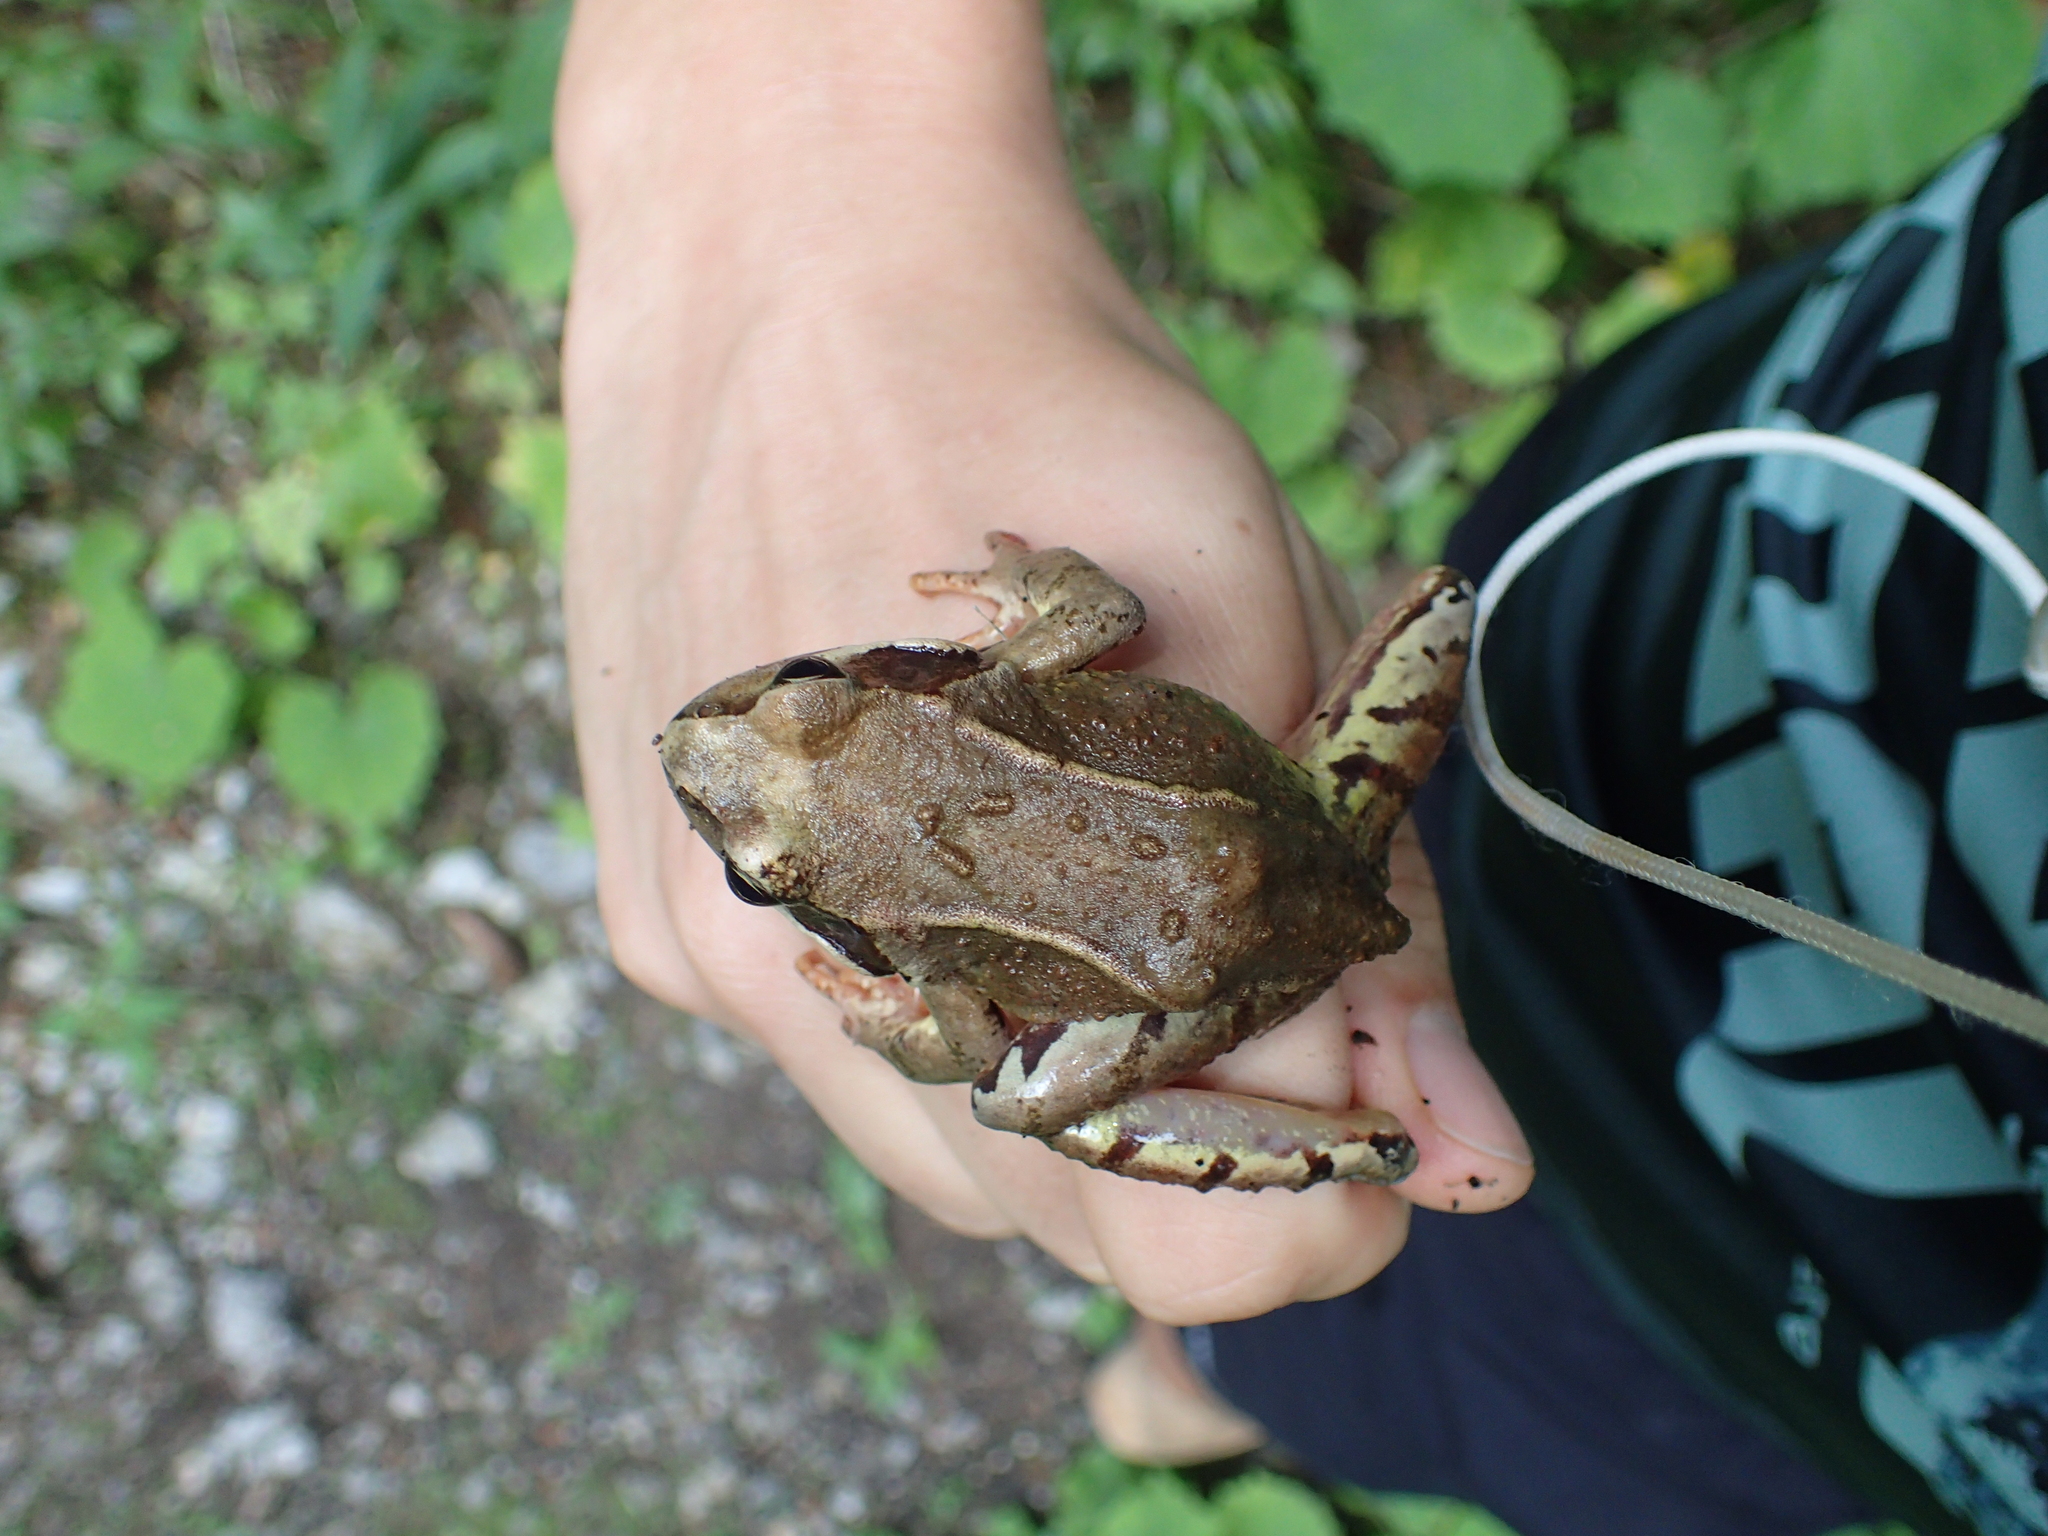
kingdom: Animalia
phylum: Chordata
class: Amphibia
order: Anura
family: Ranidae
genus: Rana
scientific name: Rana temporaria
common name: Common frog
